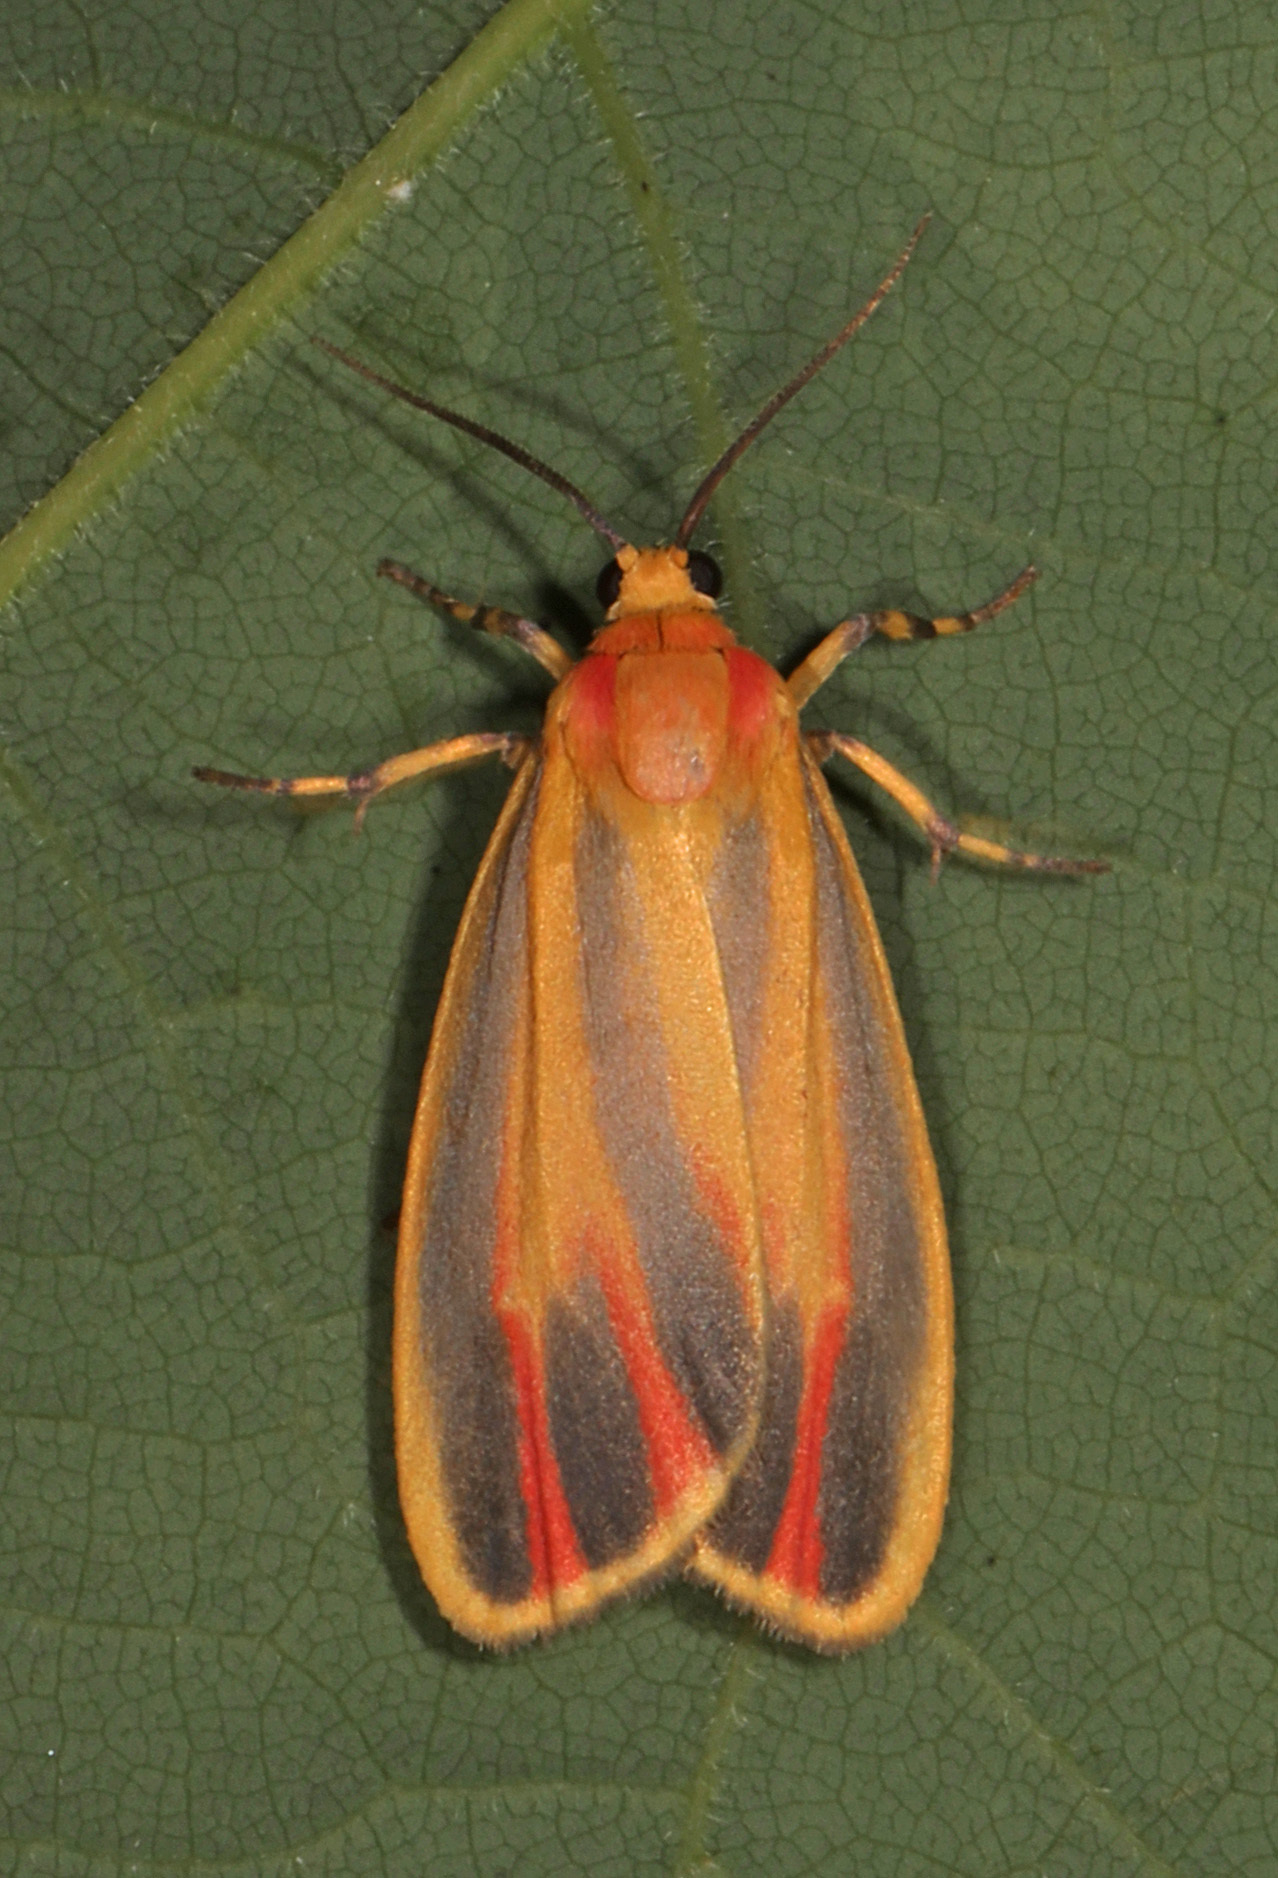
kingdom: Animalia
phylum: Arthropoda
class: Insecta
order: Lepidoptera
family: Erebidae
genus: Hypoprepia
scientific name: Hypoprepia fucosa
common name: Painted lichen moth
